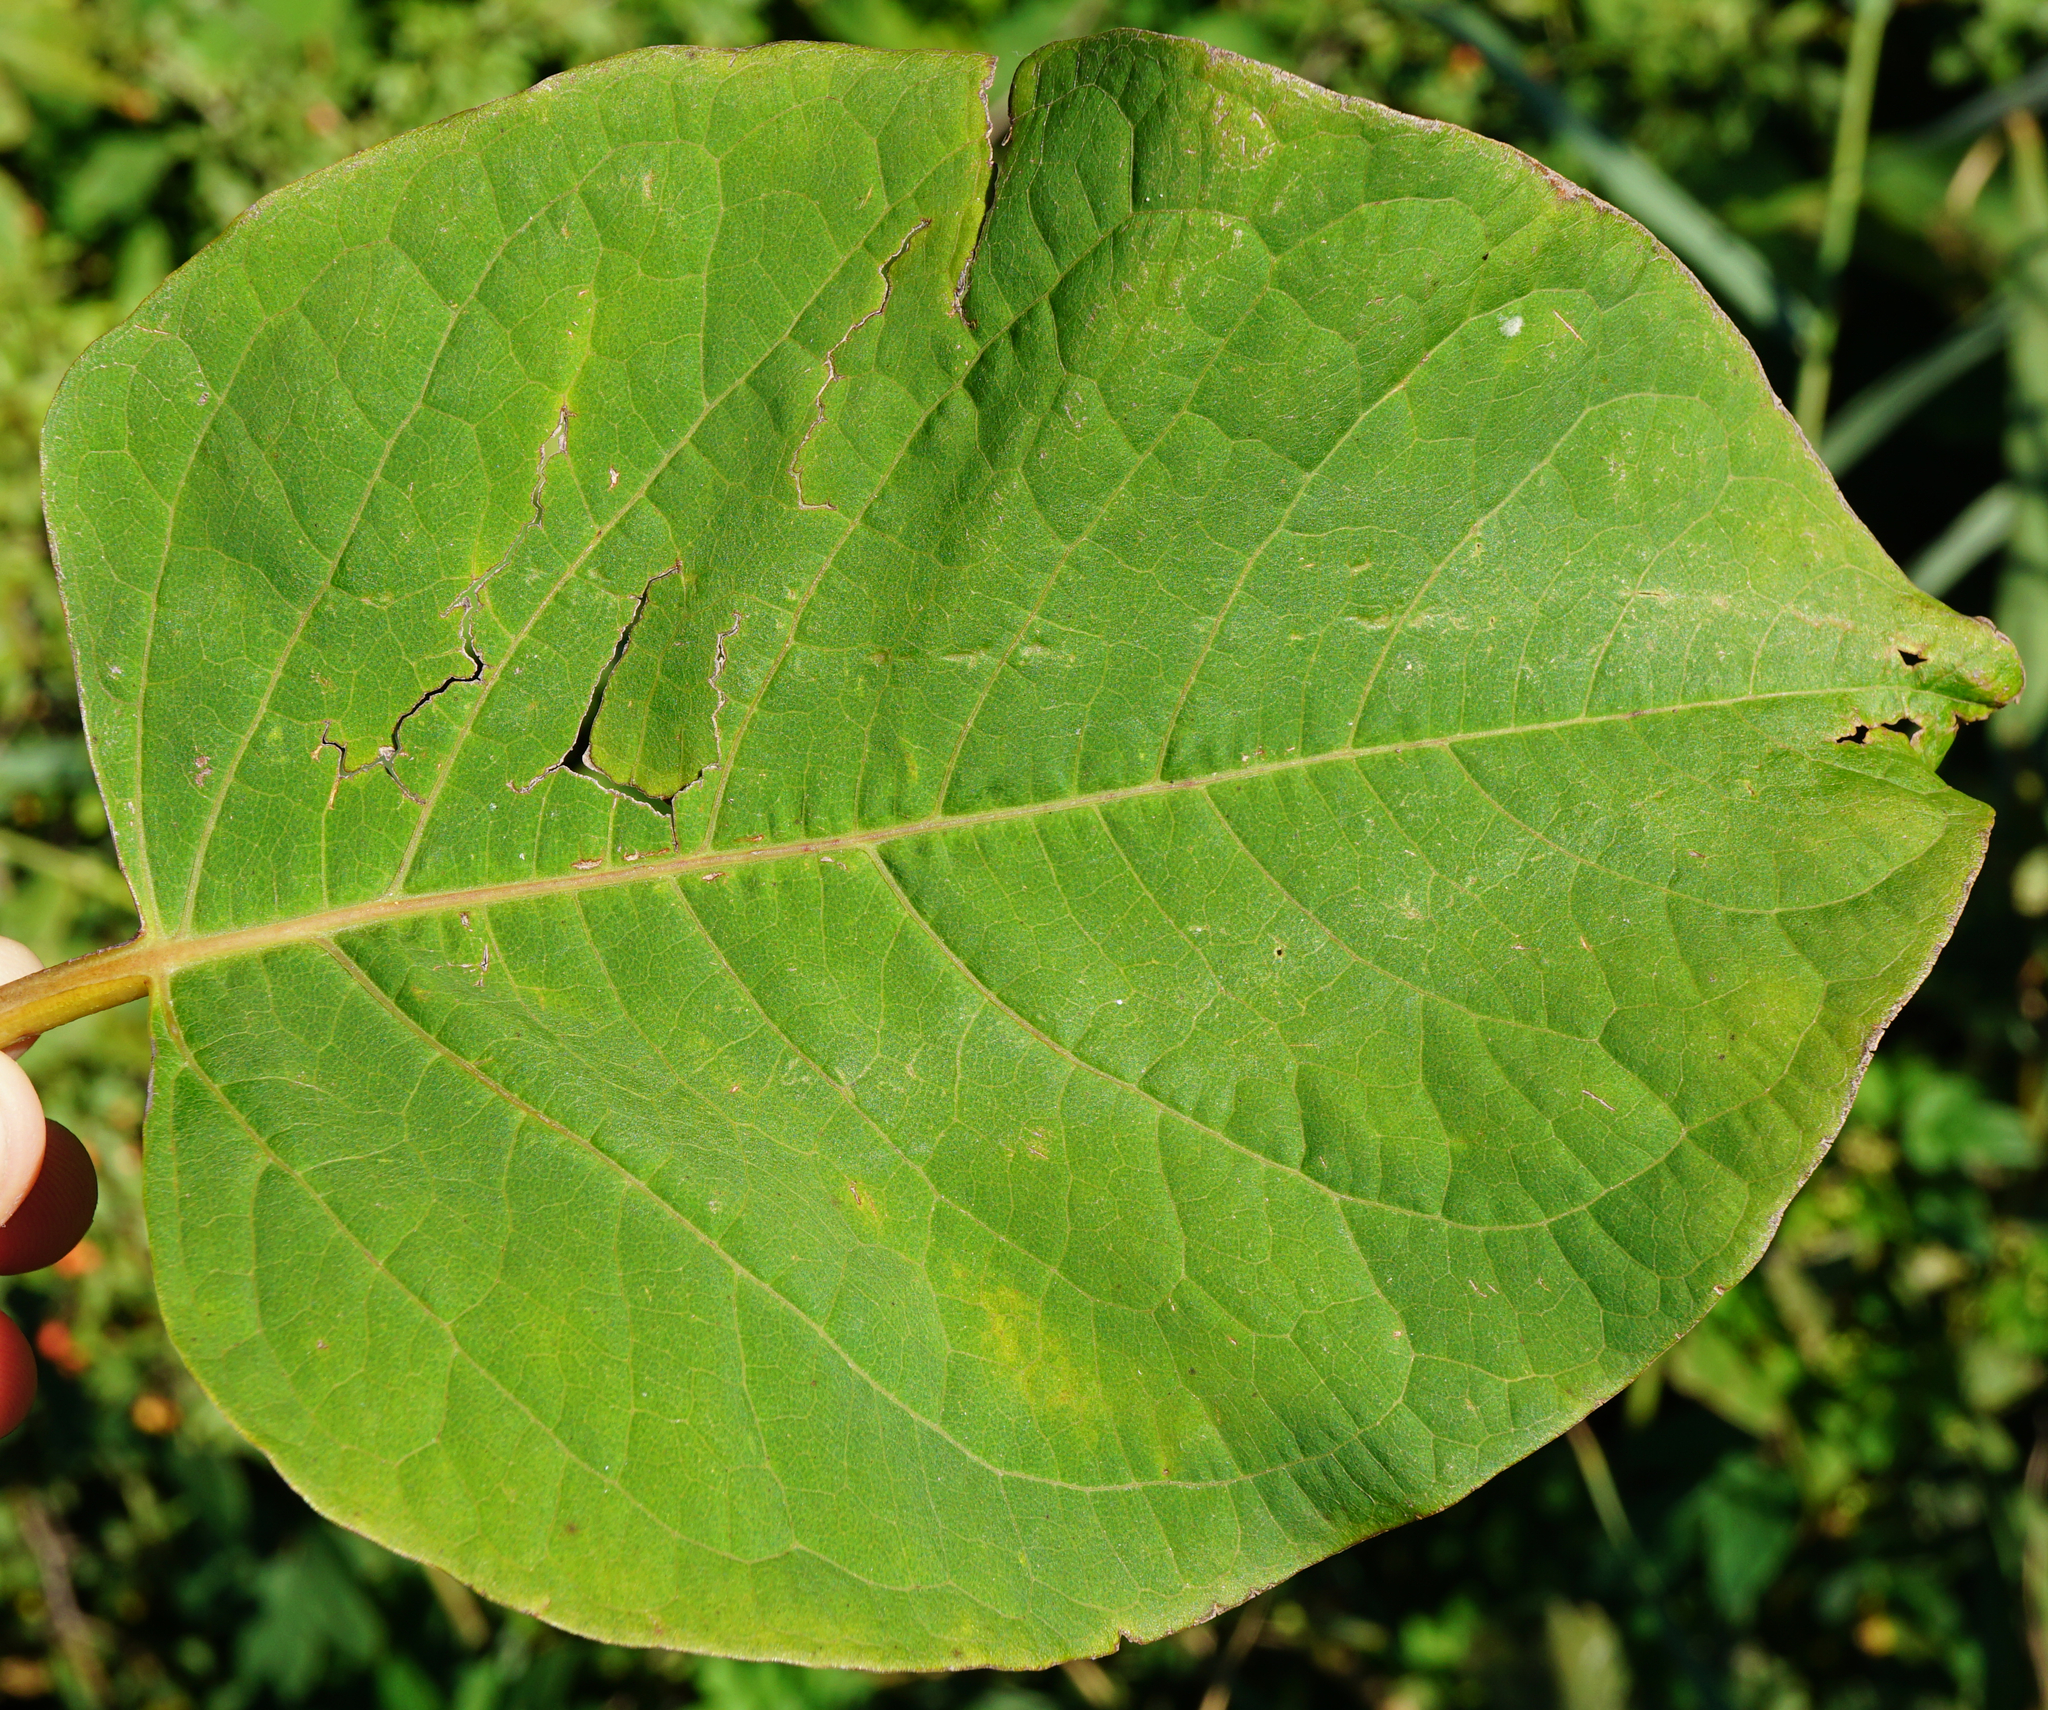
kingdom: Plantae
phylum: Tracheophyta
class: Magnoliopsida
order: Caryophyllales
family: Polygonaceae
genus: Reynoutria
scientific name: Reynoutria bohemica
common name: Bohemian knotweed
